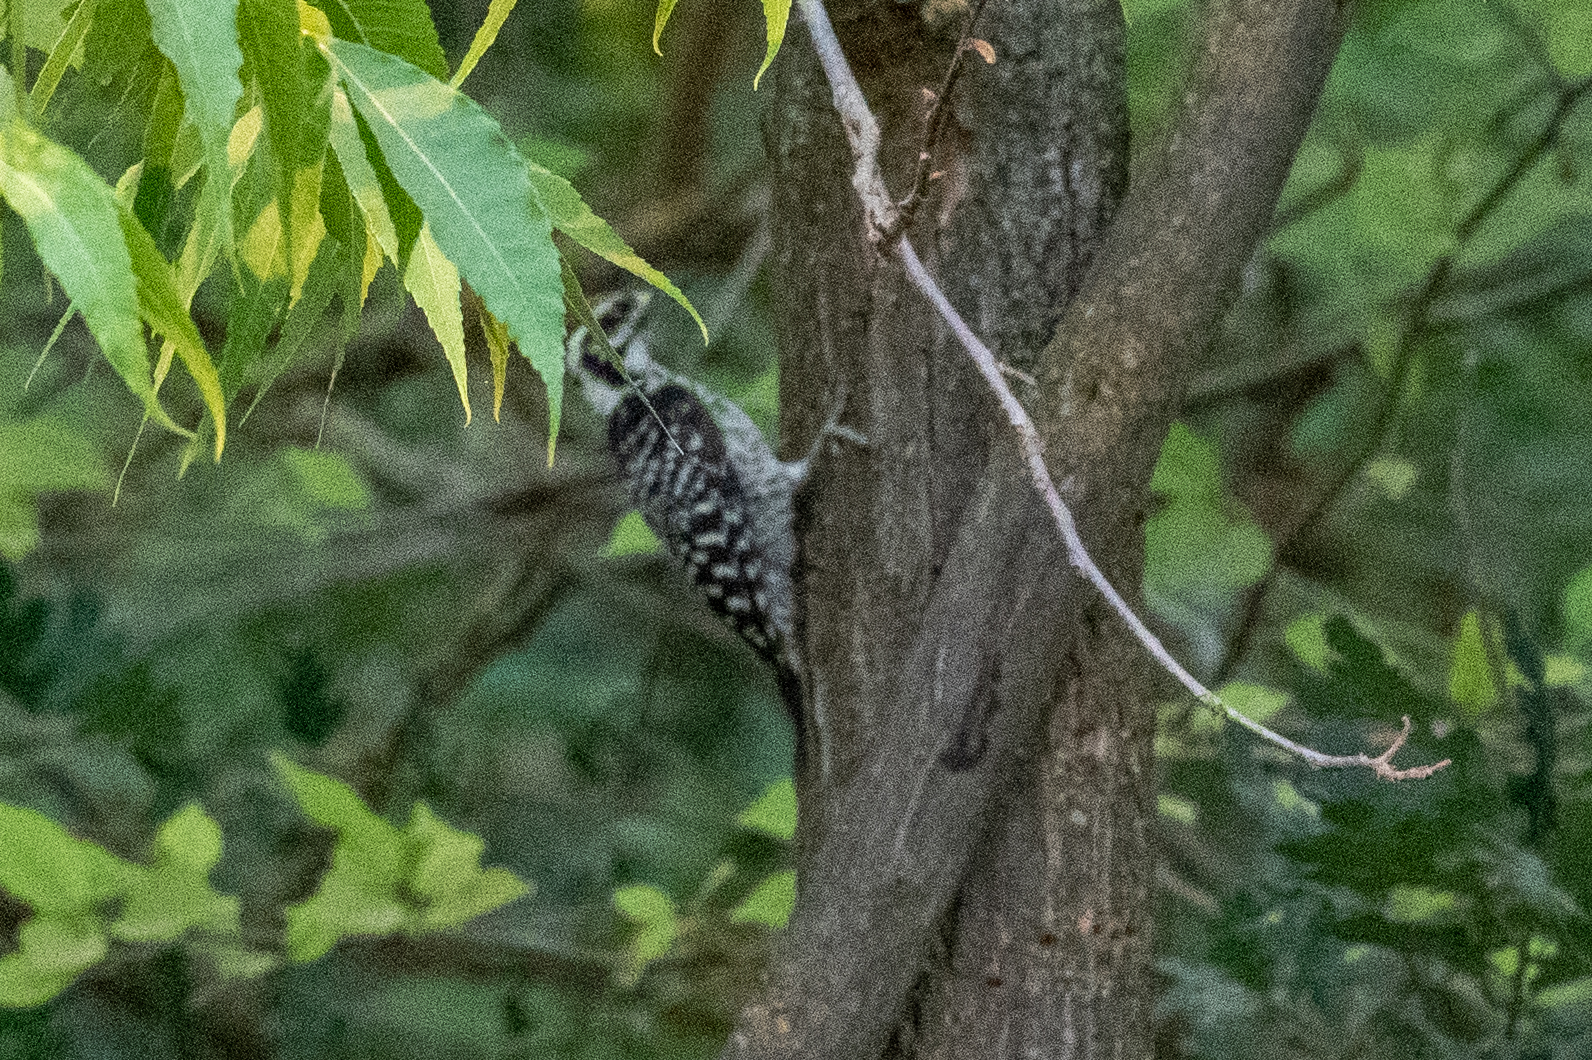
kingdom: Animalia
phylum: Chordata
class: Aves
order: Piciformes
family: Picidae
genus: Dryobates
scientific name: Dryobates nuttallii
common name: Nuttall's woodpecker
